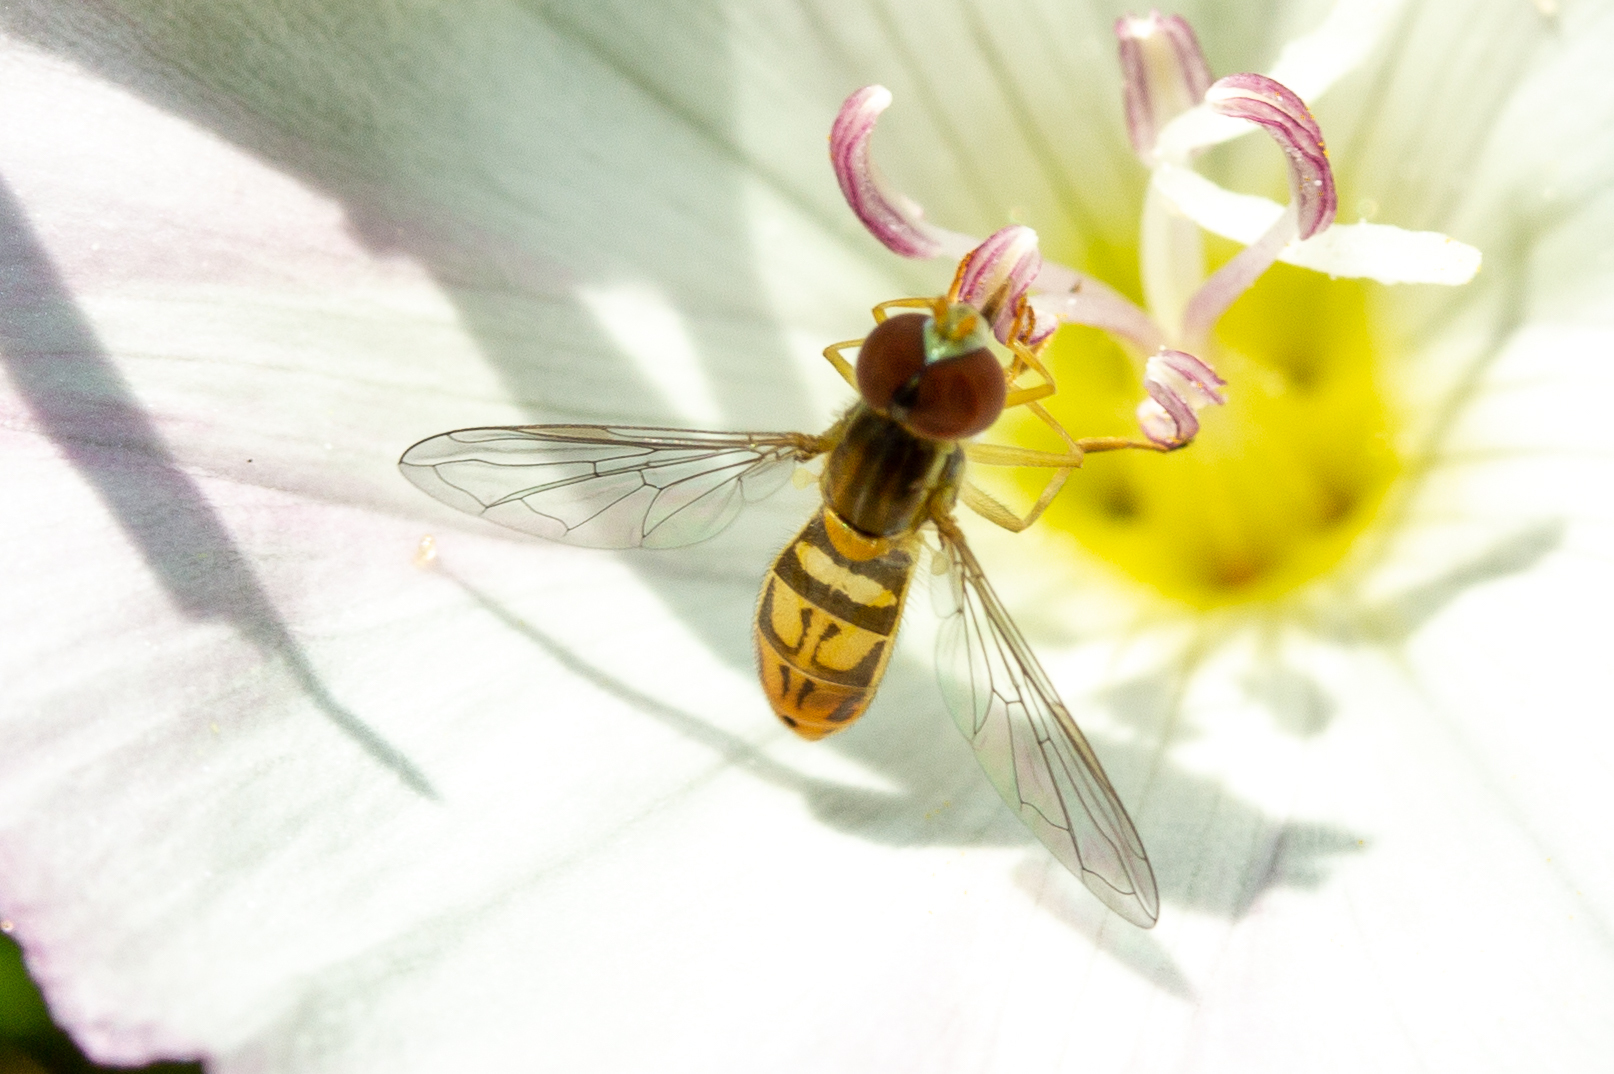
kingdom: Animalia
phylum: Arthropoda
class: Insecta
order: Diptera
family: Syrphidae
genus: Toxomerus
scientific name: Toxomerus marginatus
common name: Syrphid fly
